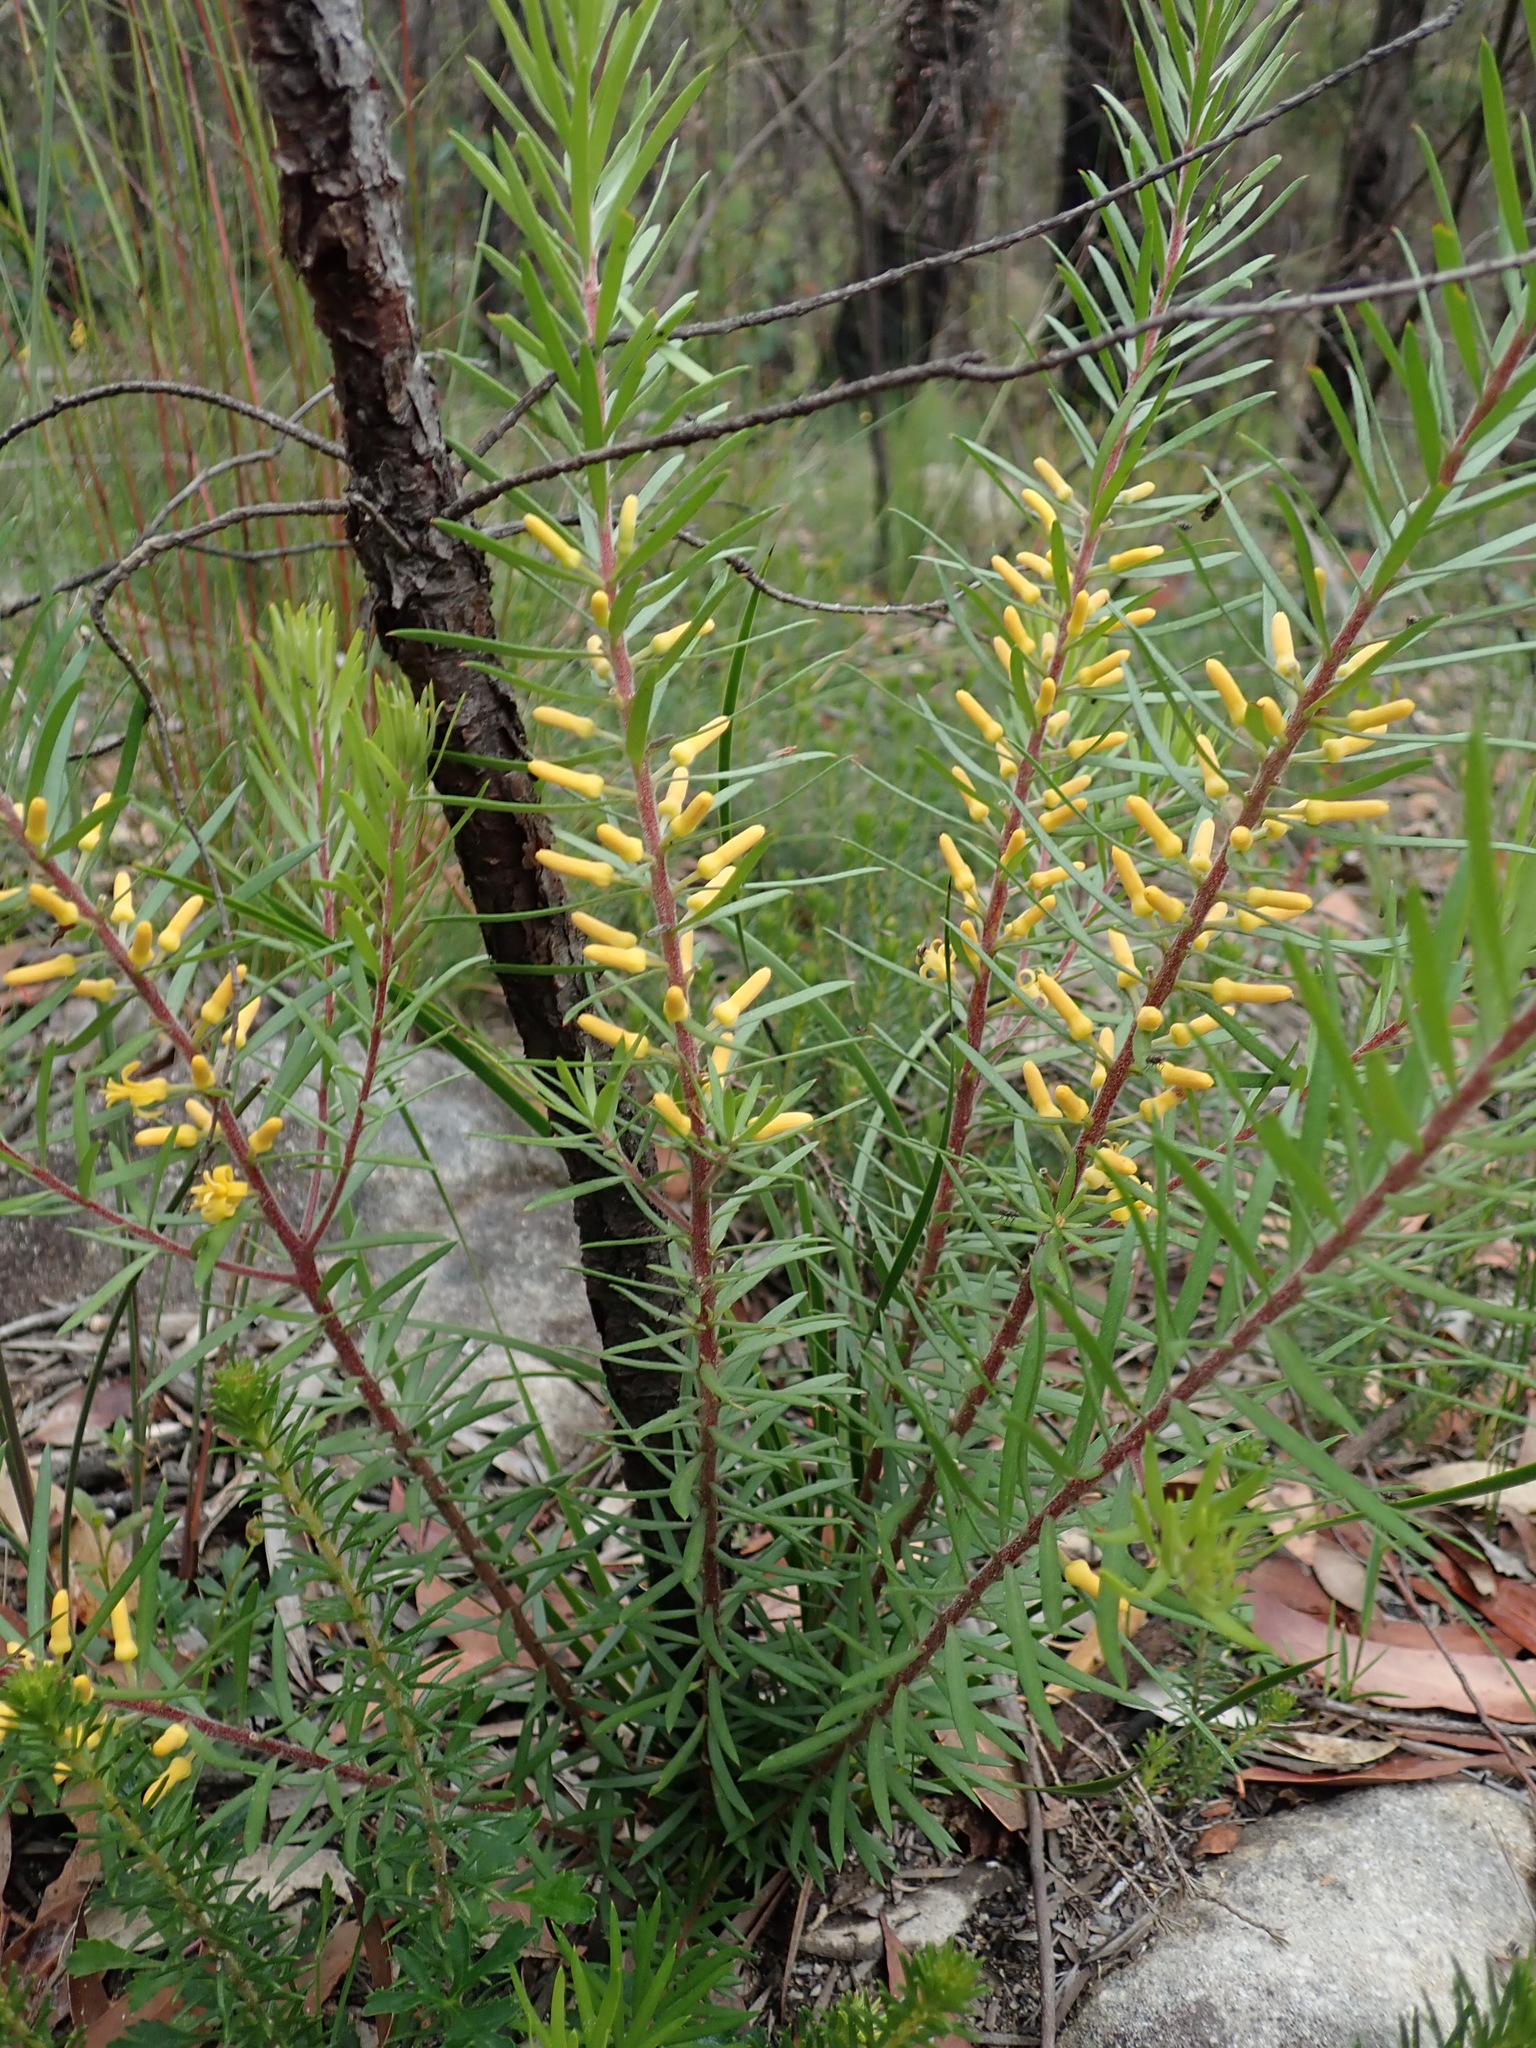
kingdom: Plantae
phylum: Tracheophyta
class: Magnoliopsida
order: Proteales
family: Proteaceae
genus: Persoonia
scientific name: Persoonia linearis
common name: Narrow-leaf geebung
